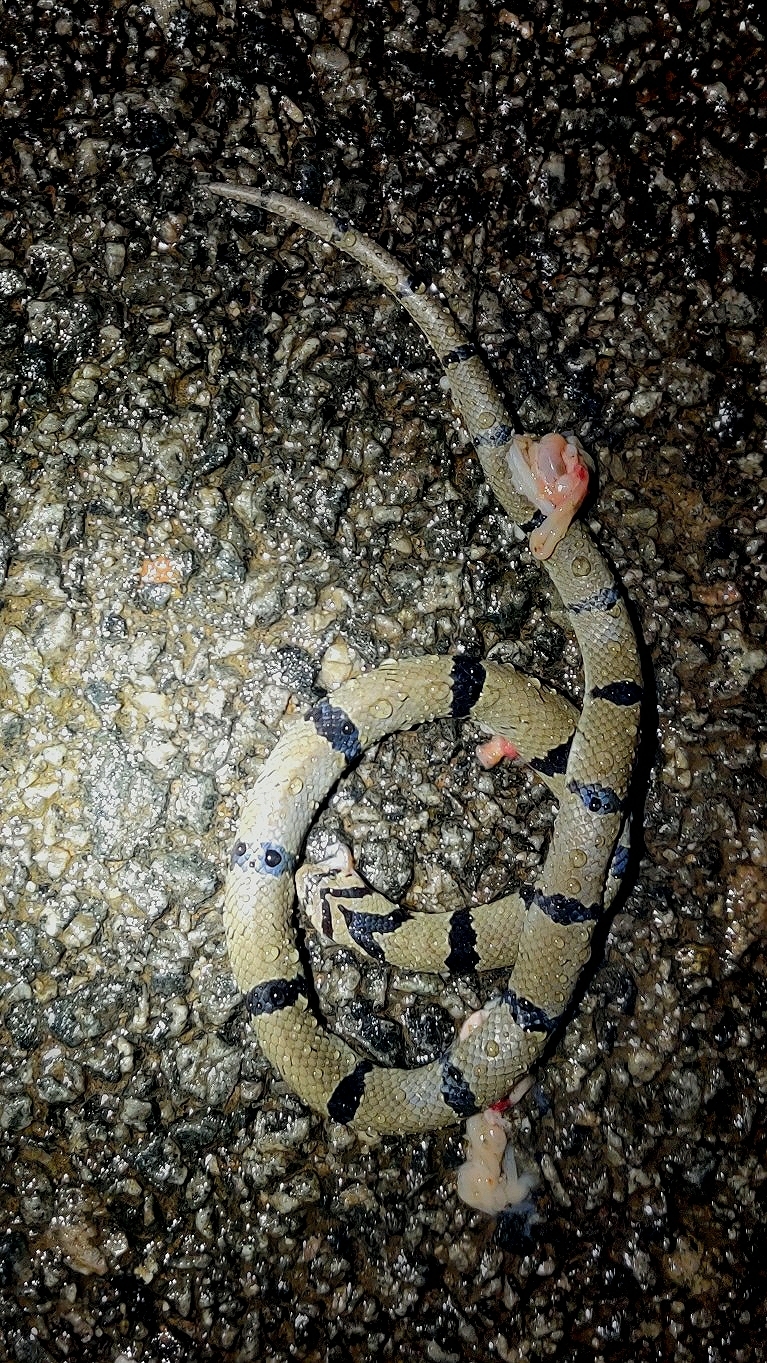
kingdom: Animalia
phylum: Chordata
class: Squamata
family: Colubridae
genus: Oligodon
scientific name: Oligodon arnensis
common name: Banded kukri
